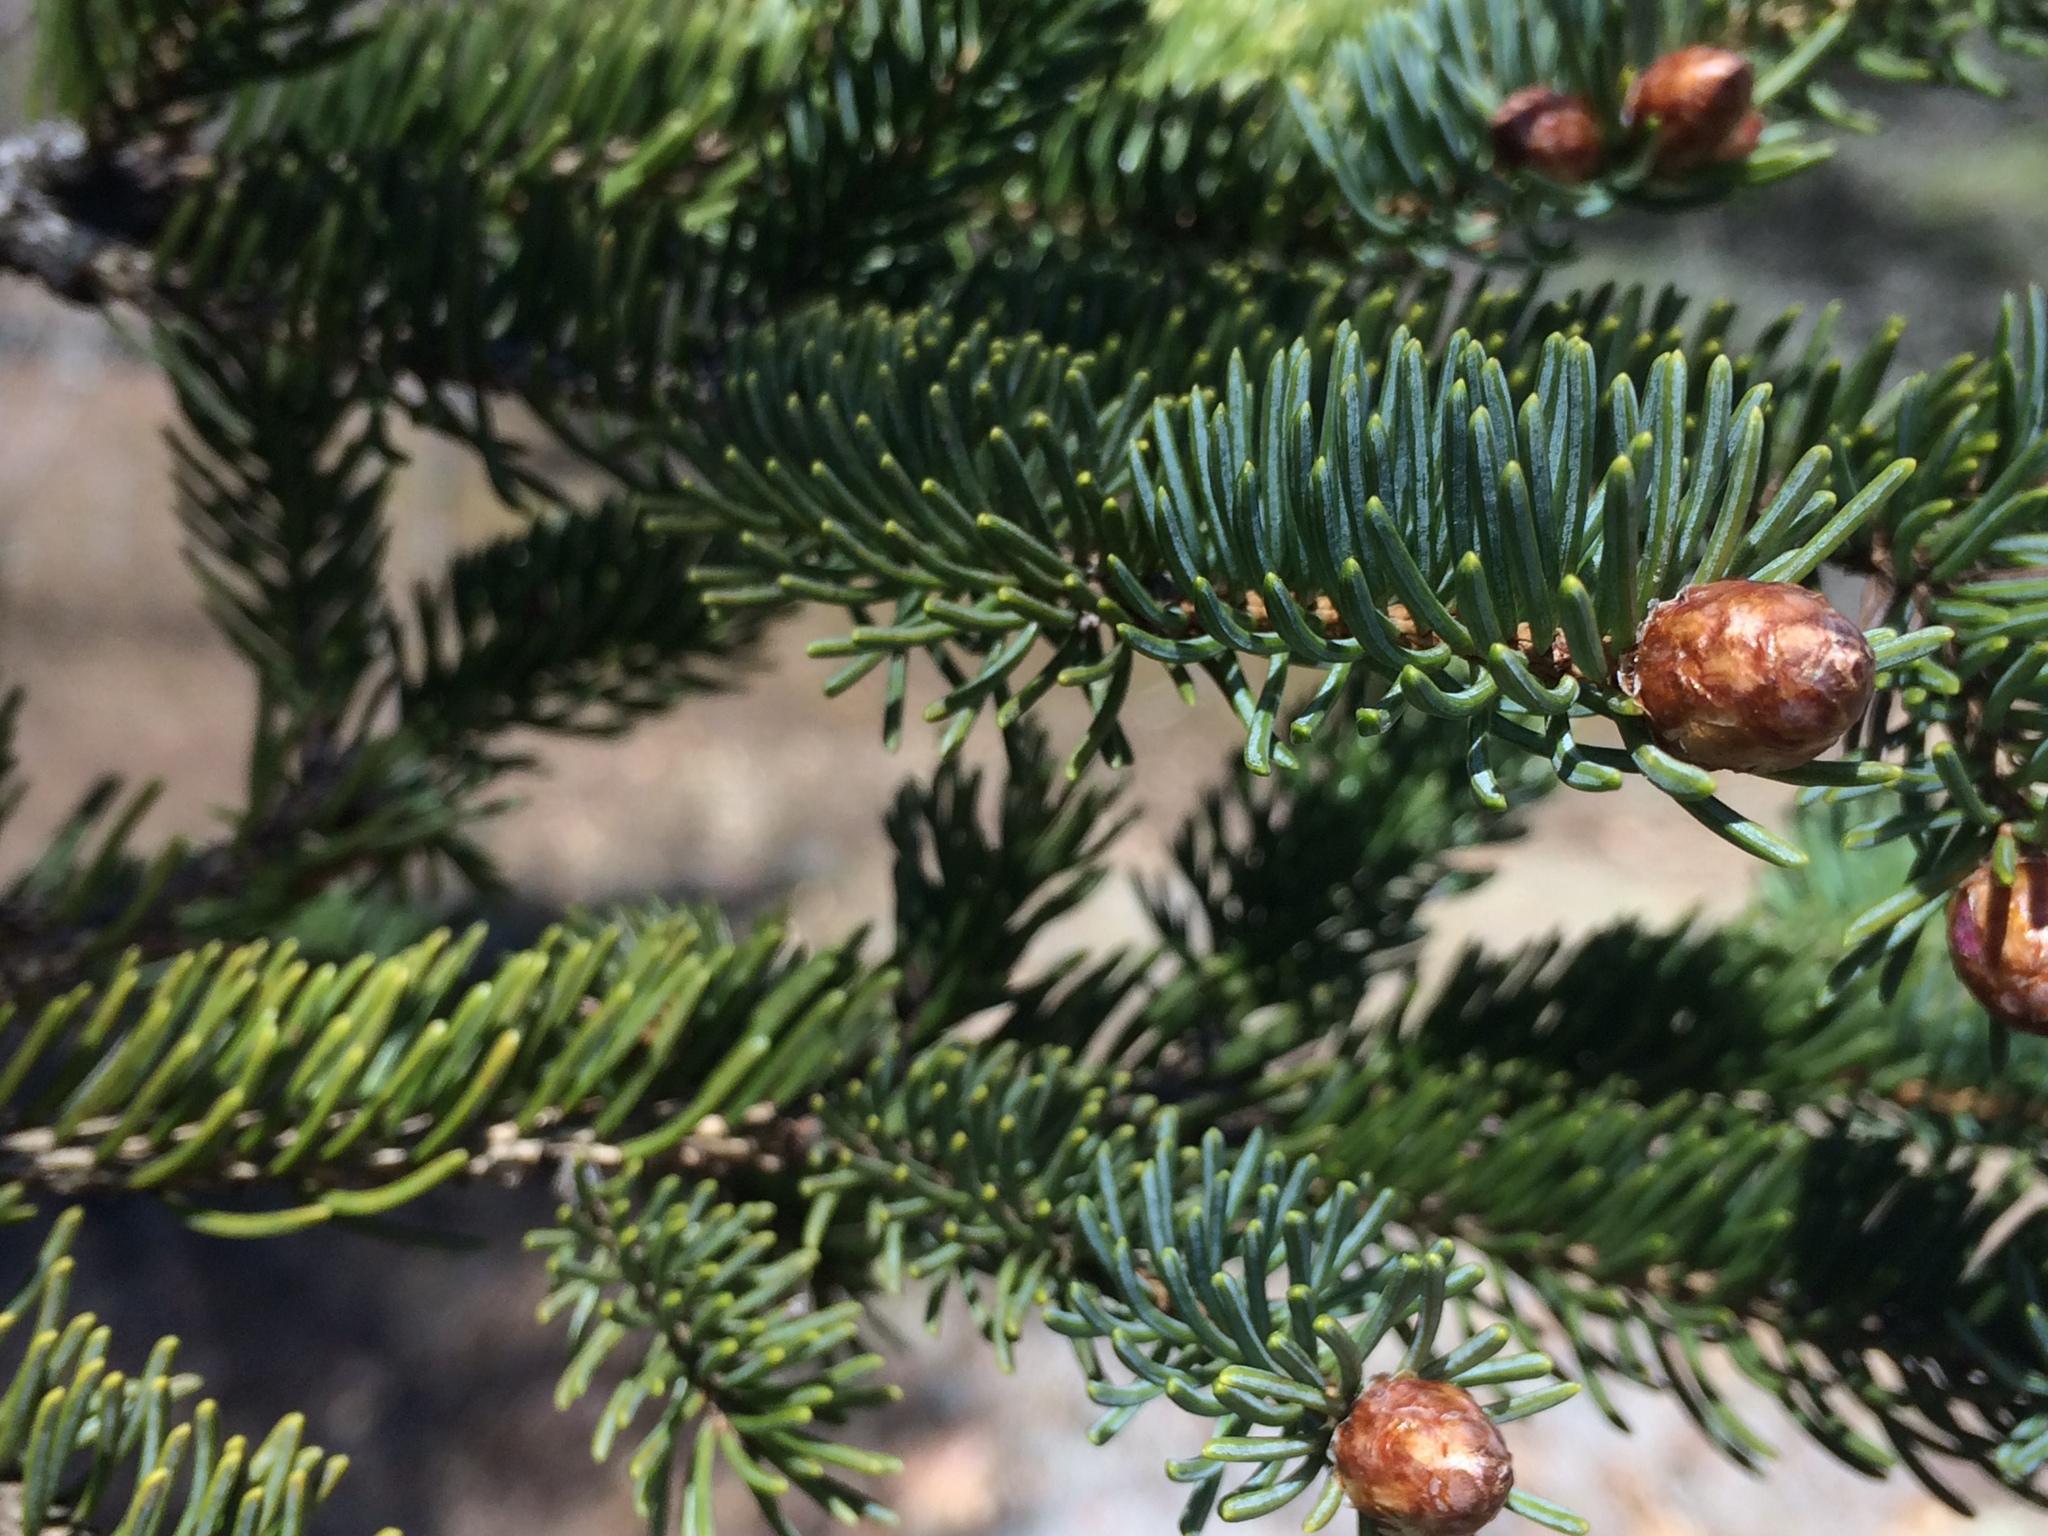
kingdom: Plantae
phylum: Tracheophyta
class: Pinopsida
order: Pinales
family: Pinaceae
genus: Picea
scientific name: Picea glauca
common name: White spruce
